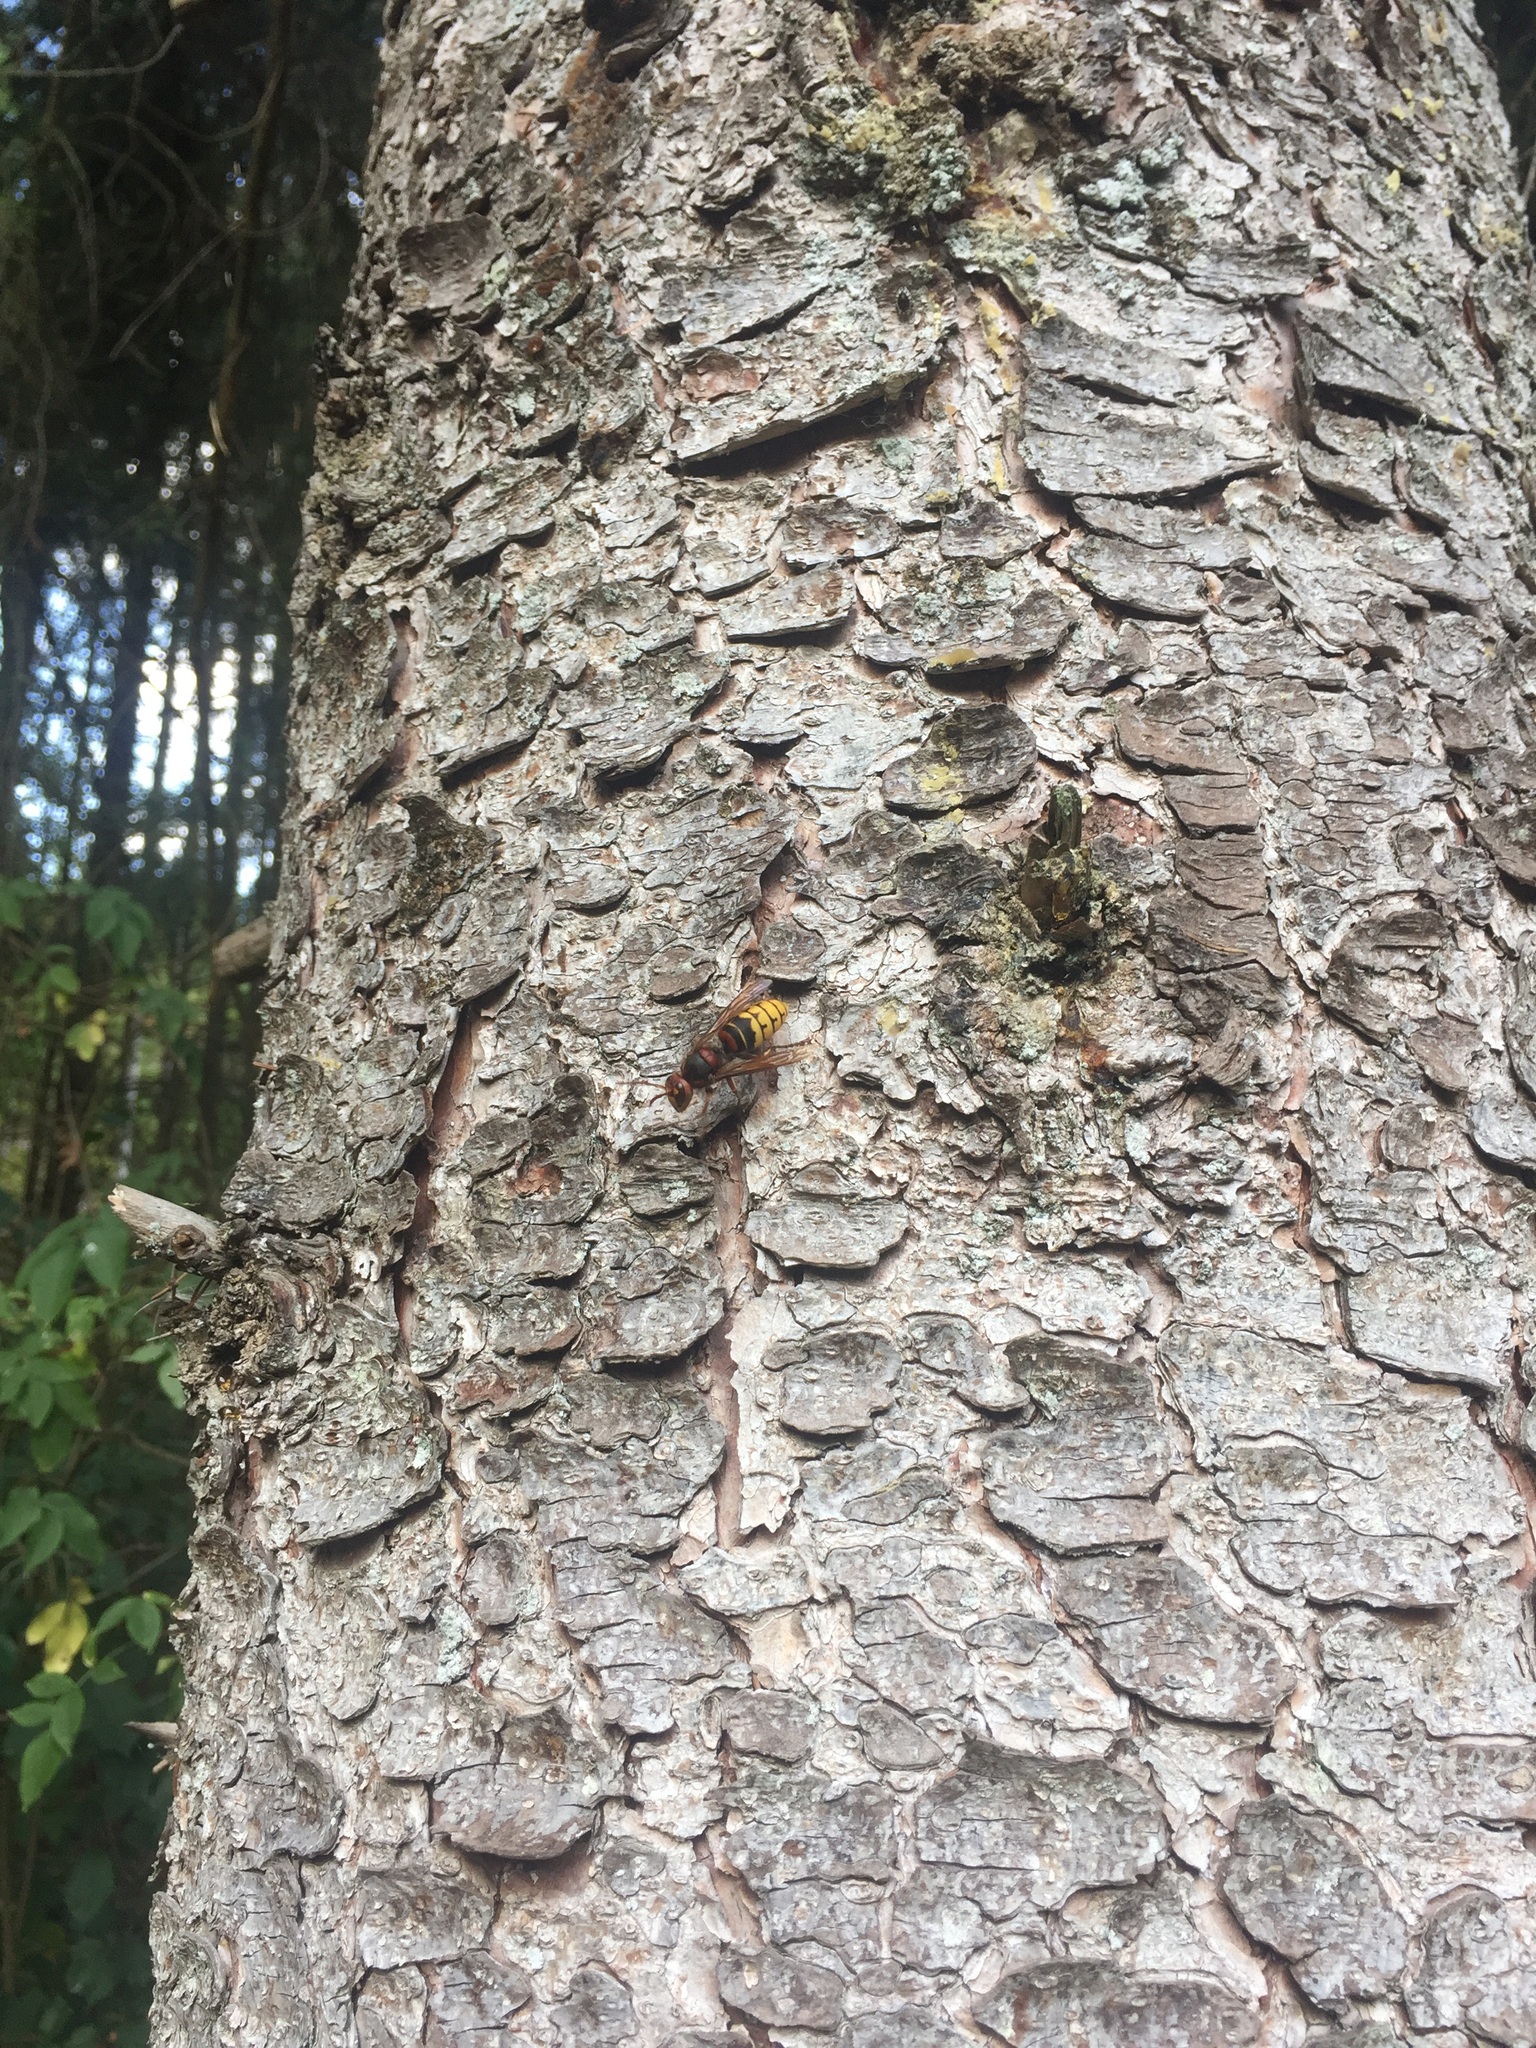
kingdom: Animalia
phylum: Arthropoda
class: Insecta
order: Hymenoptera
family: Vespidae
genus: Vespa
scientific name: Vespa crabro
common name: Hornet
